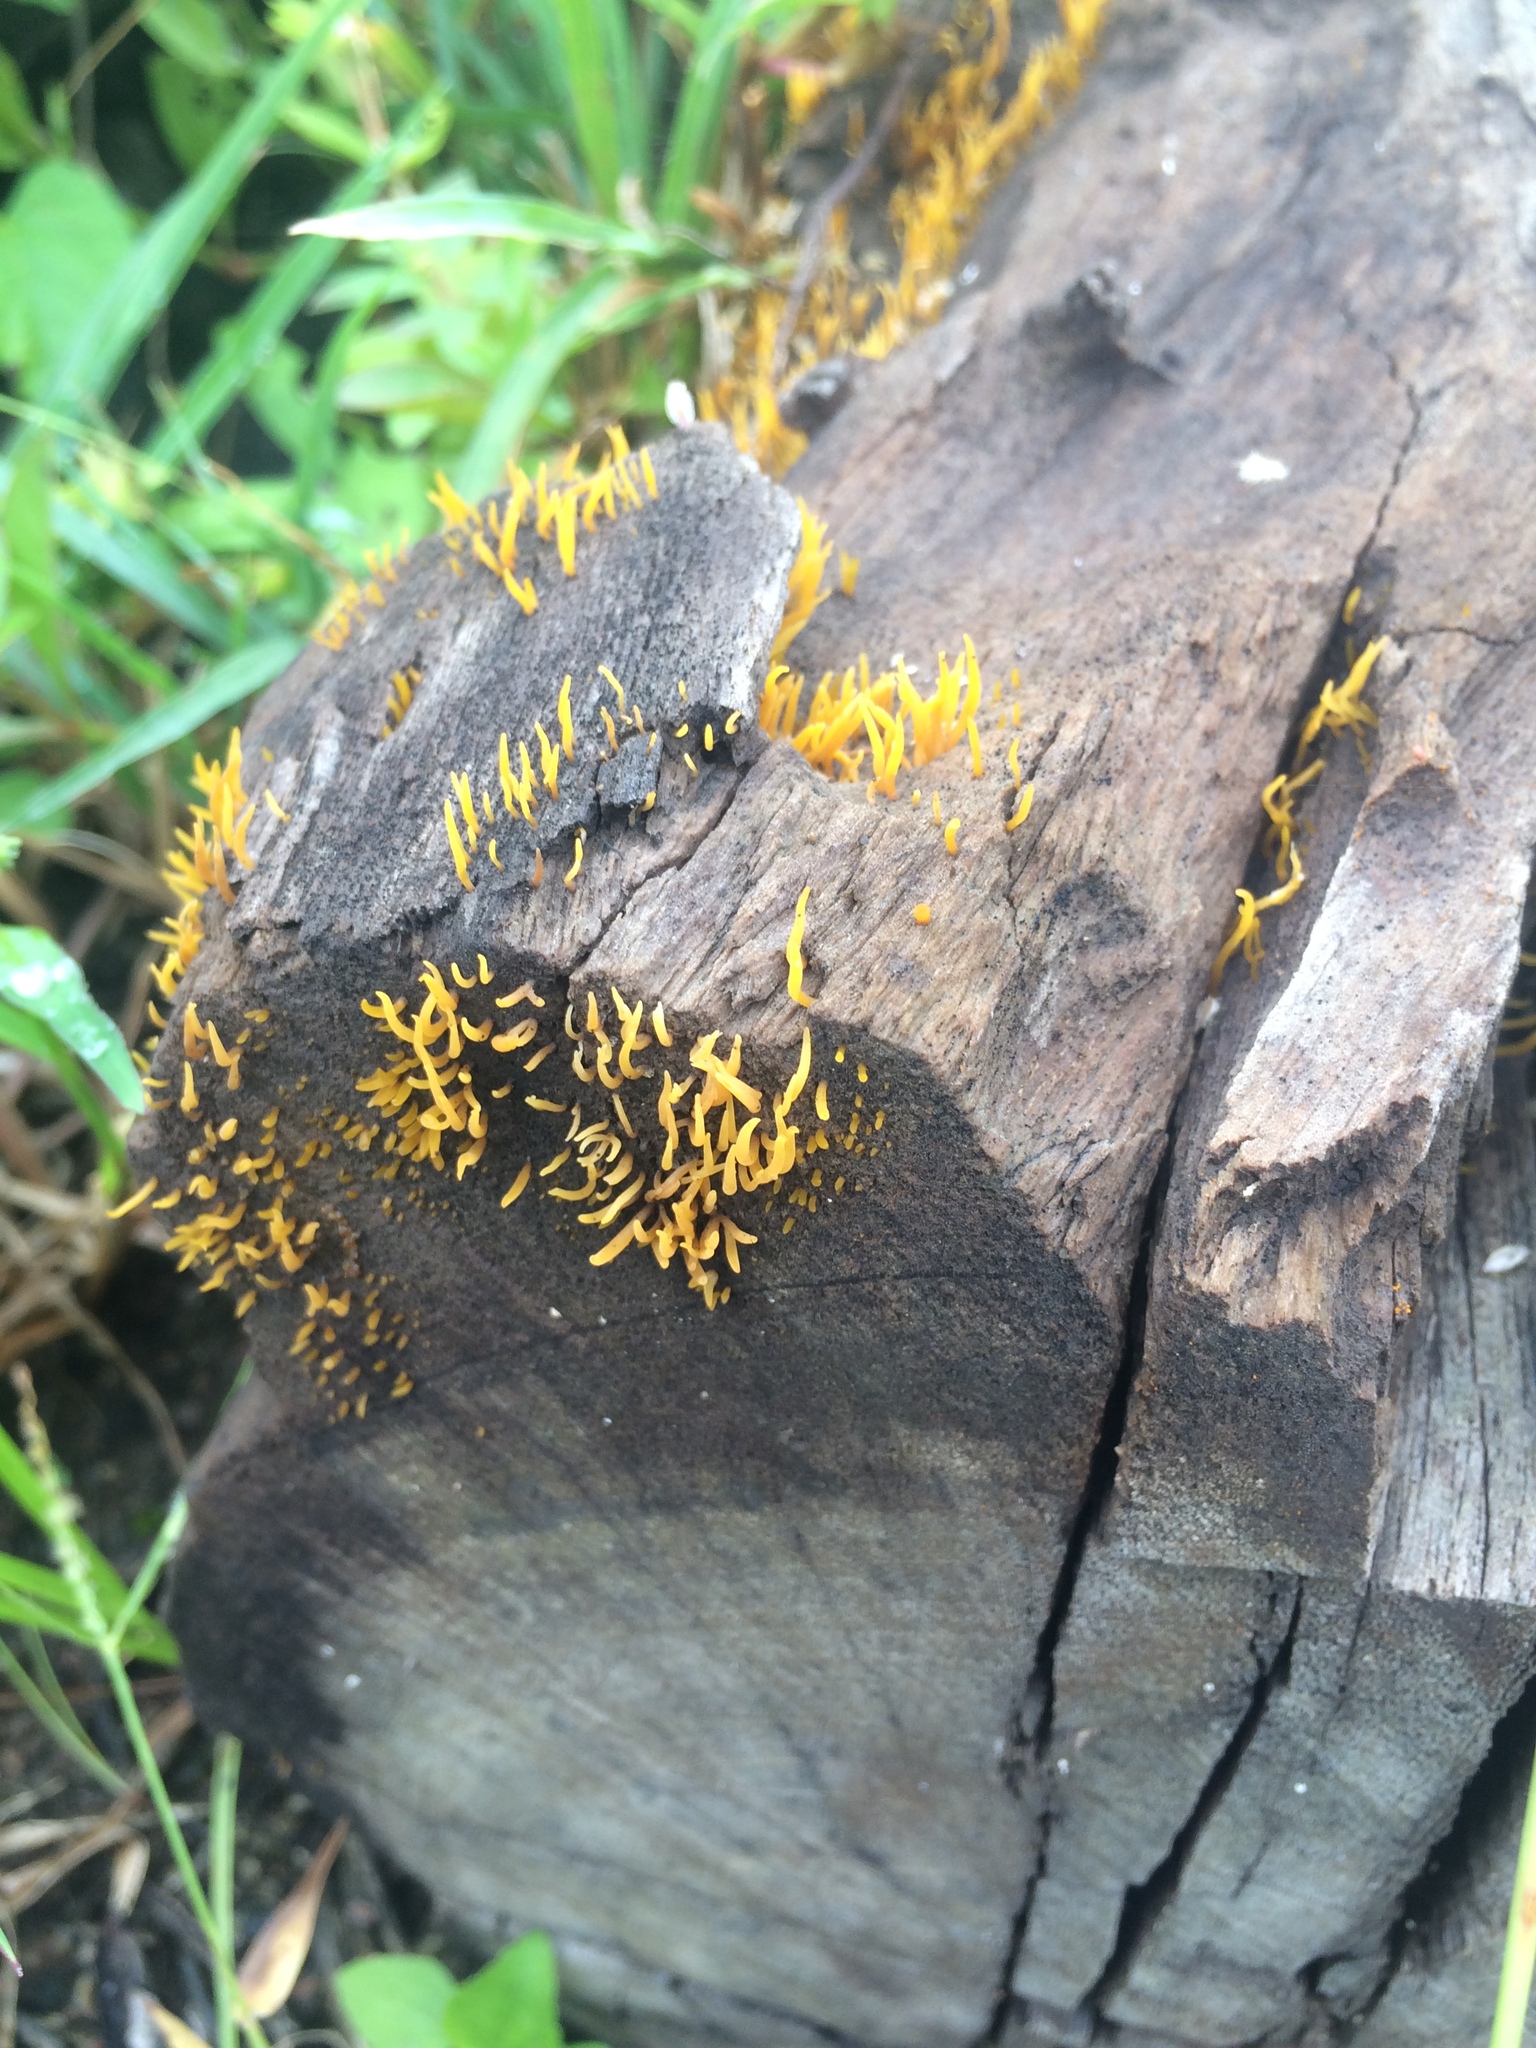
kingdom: Fungi
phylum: Basidiomycota
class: Dacrymycetes
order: Dacrymycetales
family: Dacrymycetaceae
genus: Dacrymyces
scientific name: Dacrymyces spathularius
